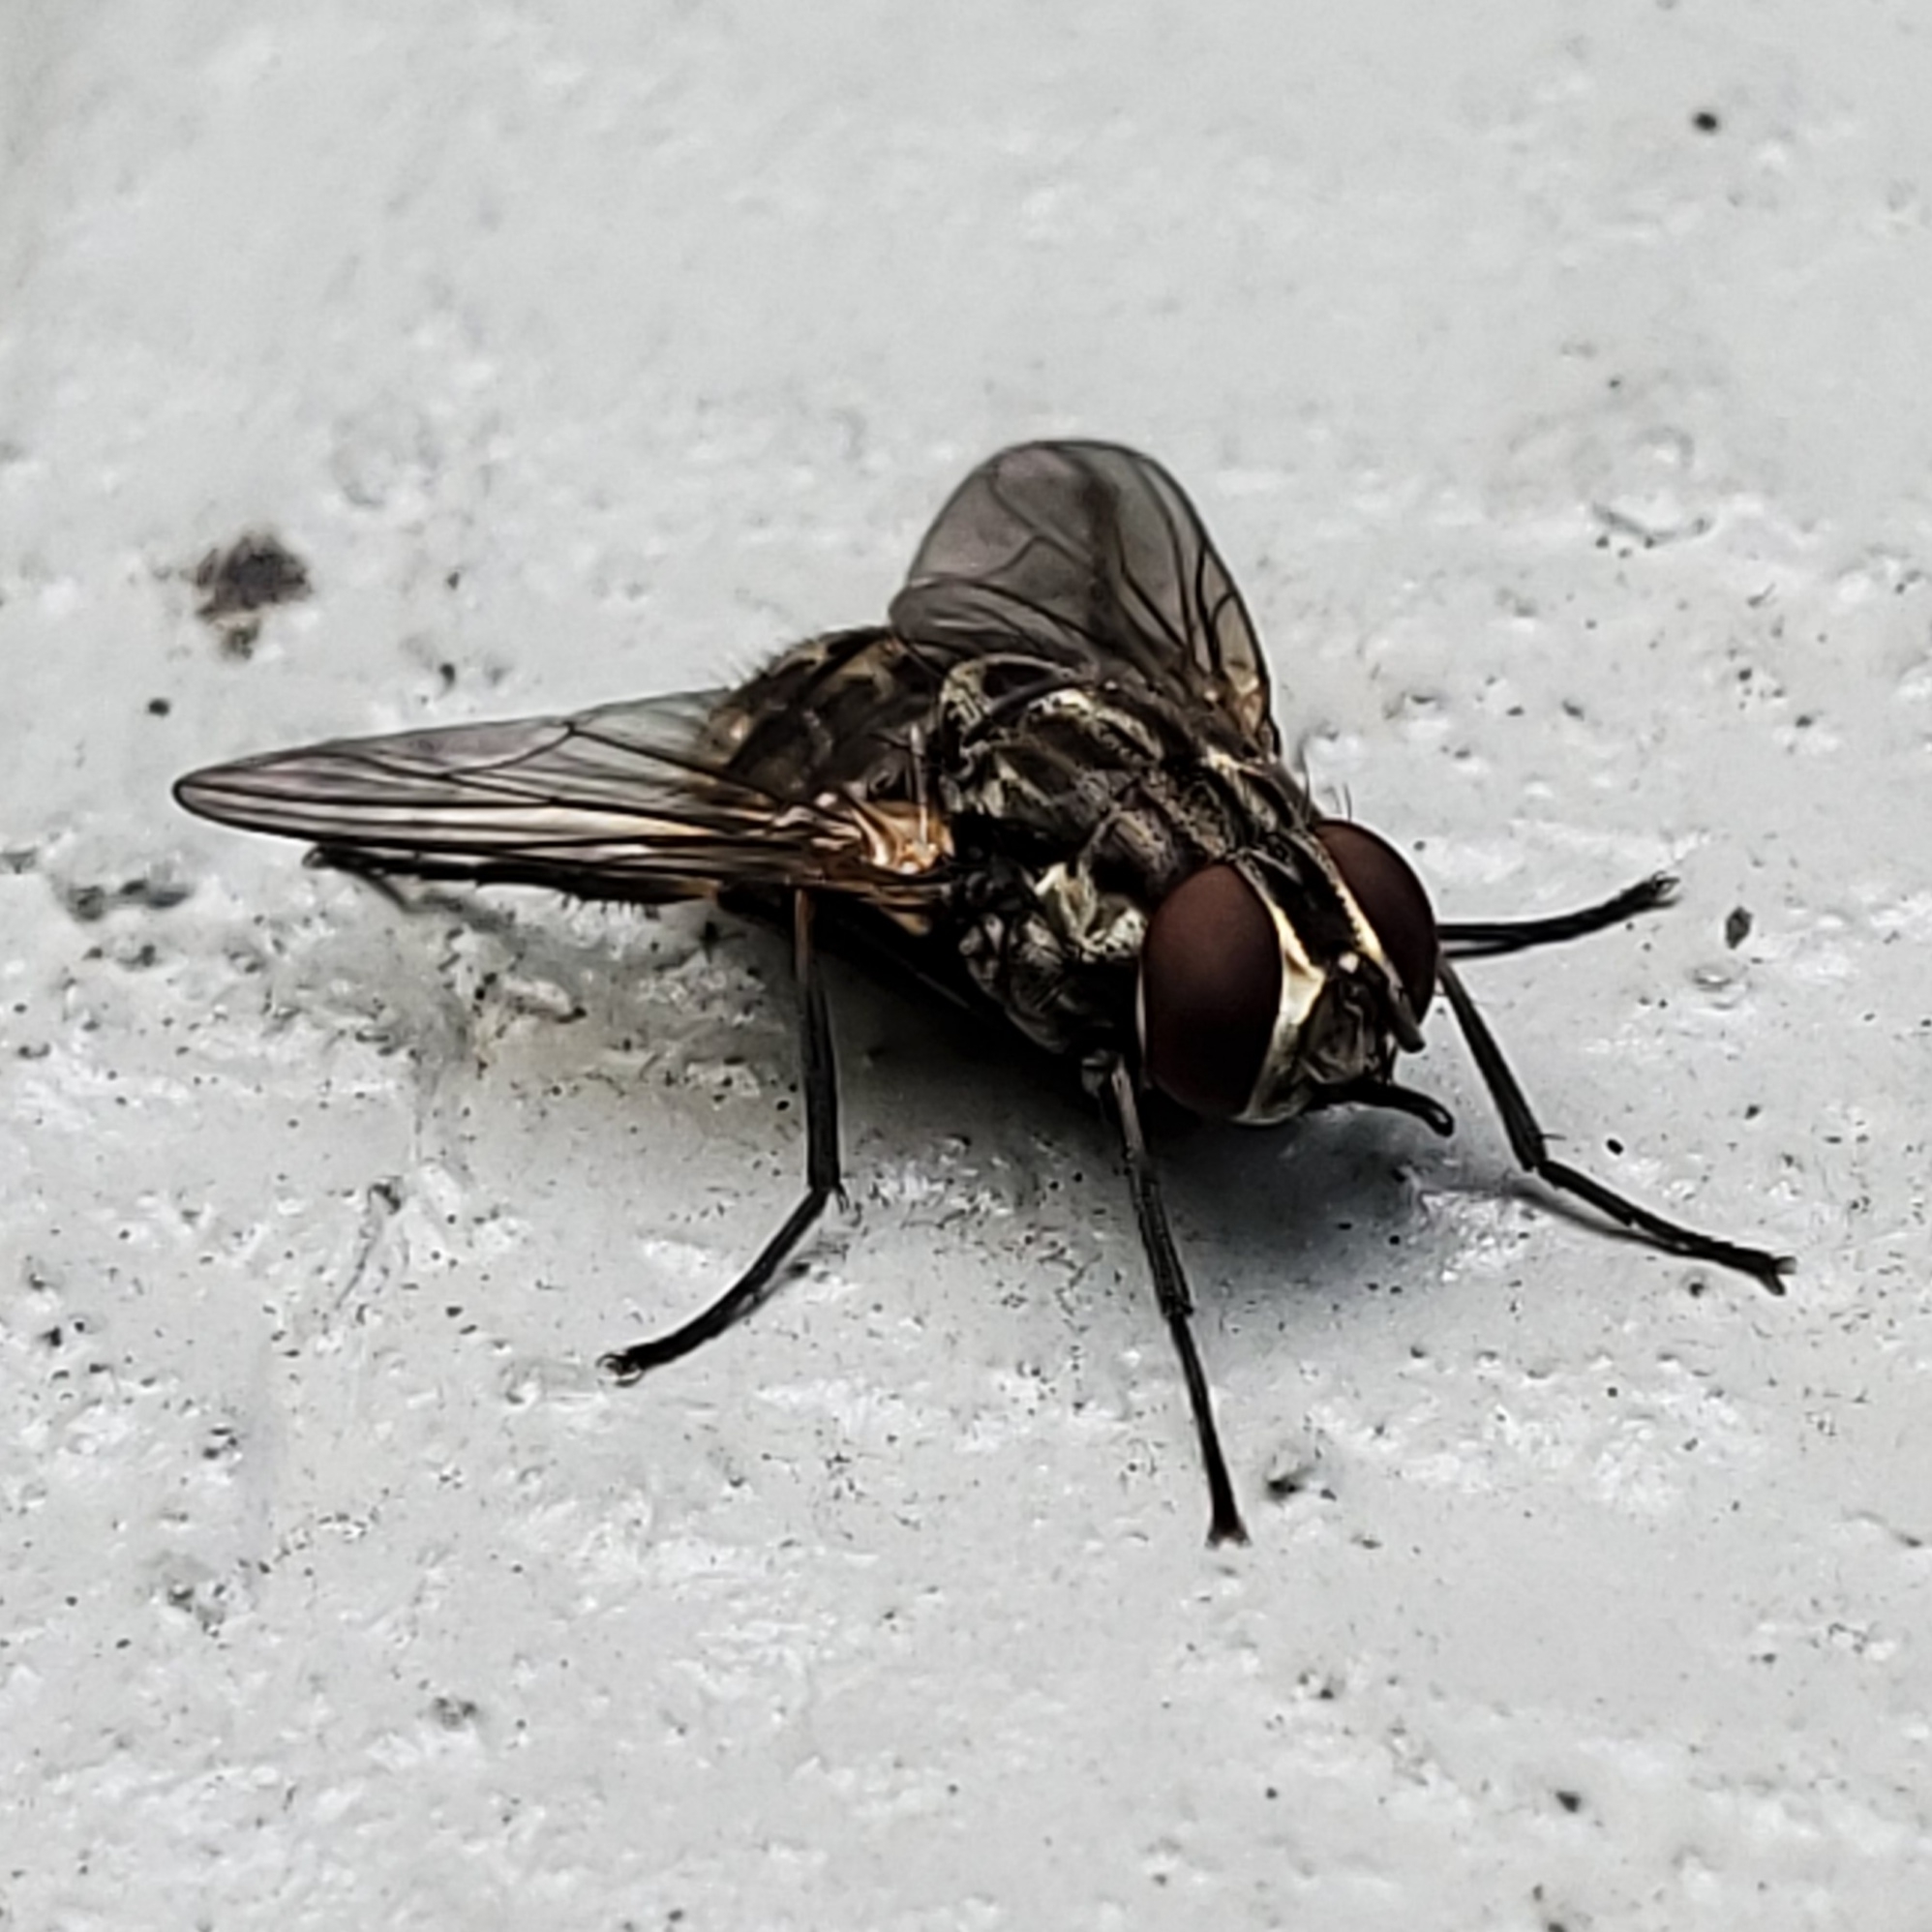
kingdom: Animalia
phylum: Arthropoda
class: Insecta
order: Diptera
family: Muscidae
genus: Stomoxys
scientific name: Stomoxys calcitrans
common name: Stable fly
